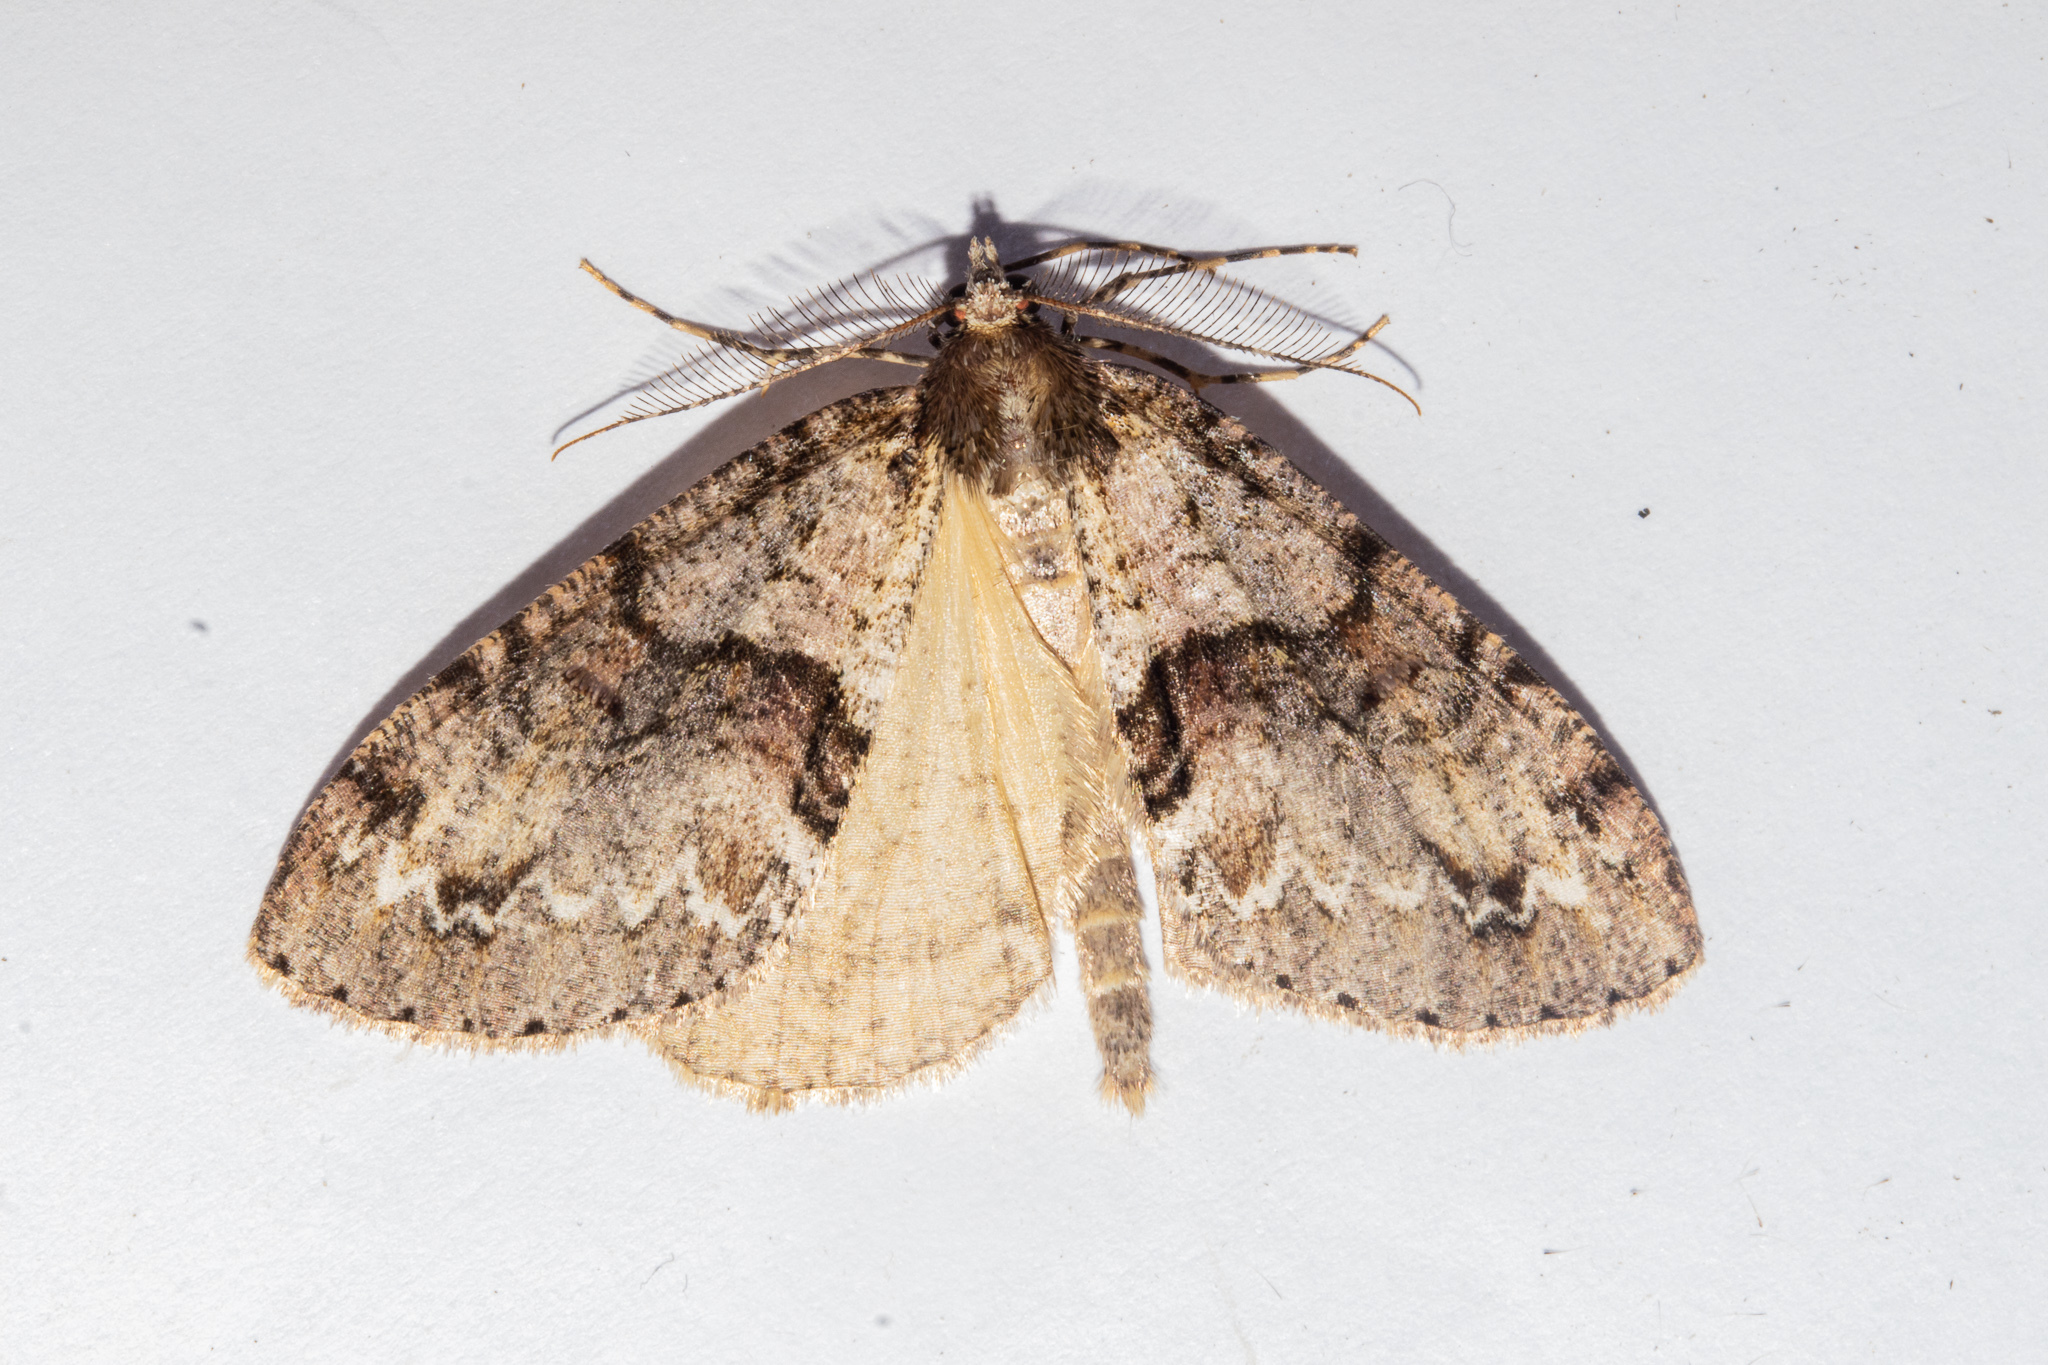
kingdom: Animalia
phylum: Arthropoda
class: Insecta
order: Lepidoptera
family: Geometridae
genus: Pseudocoremia
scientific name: Pseudocoremia suavis
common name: Common forest looper
